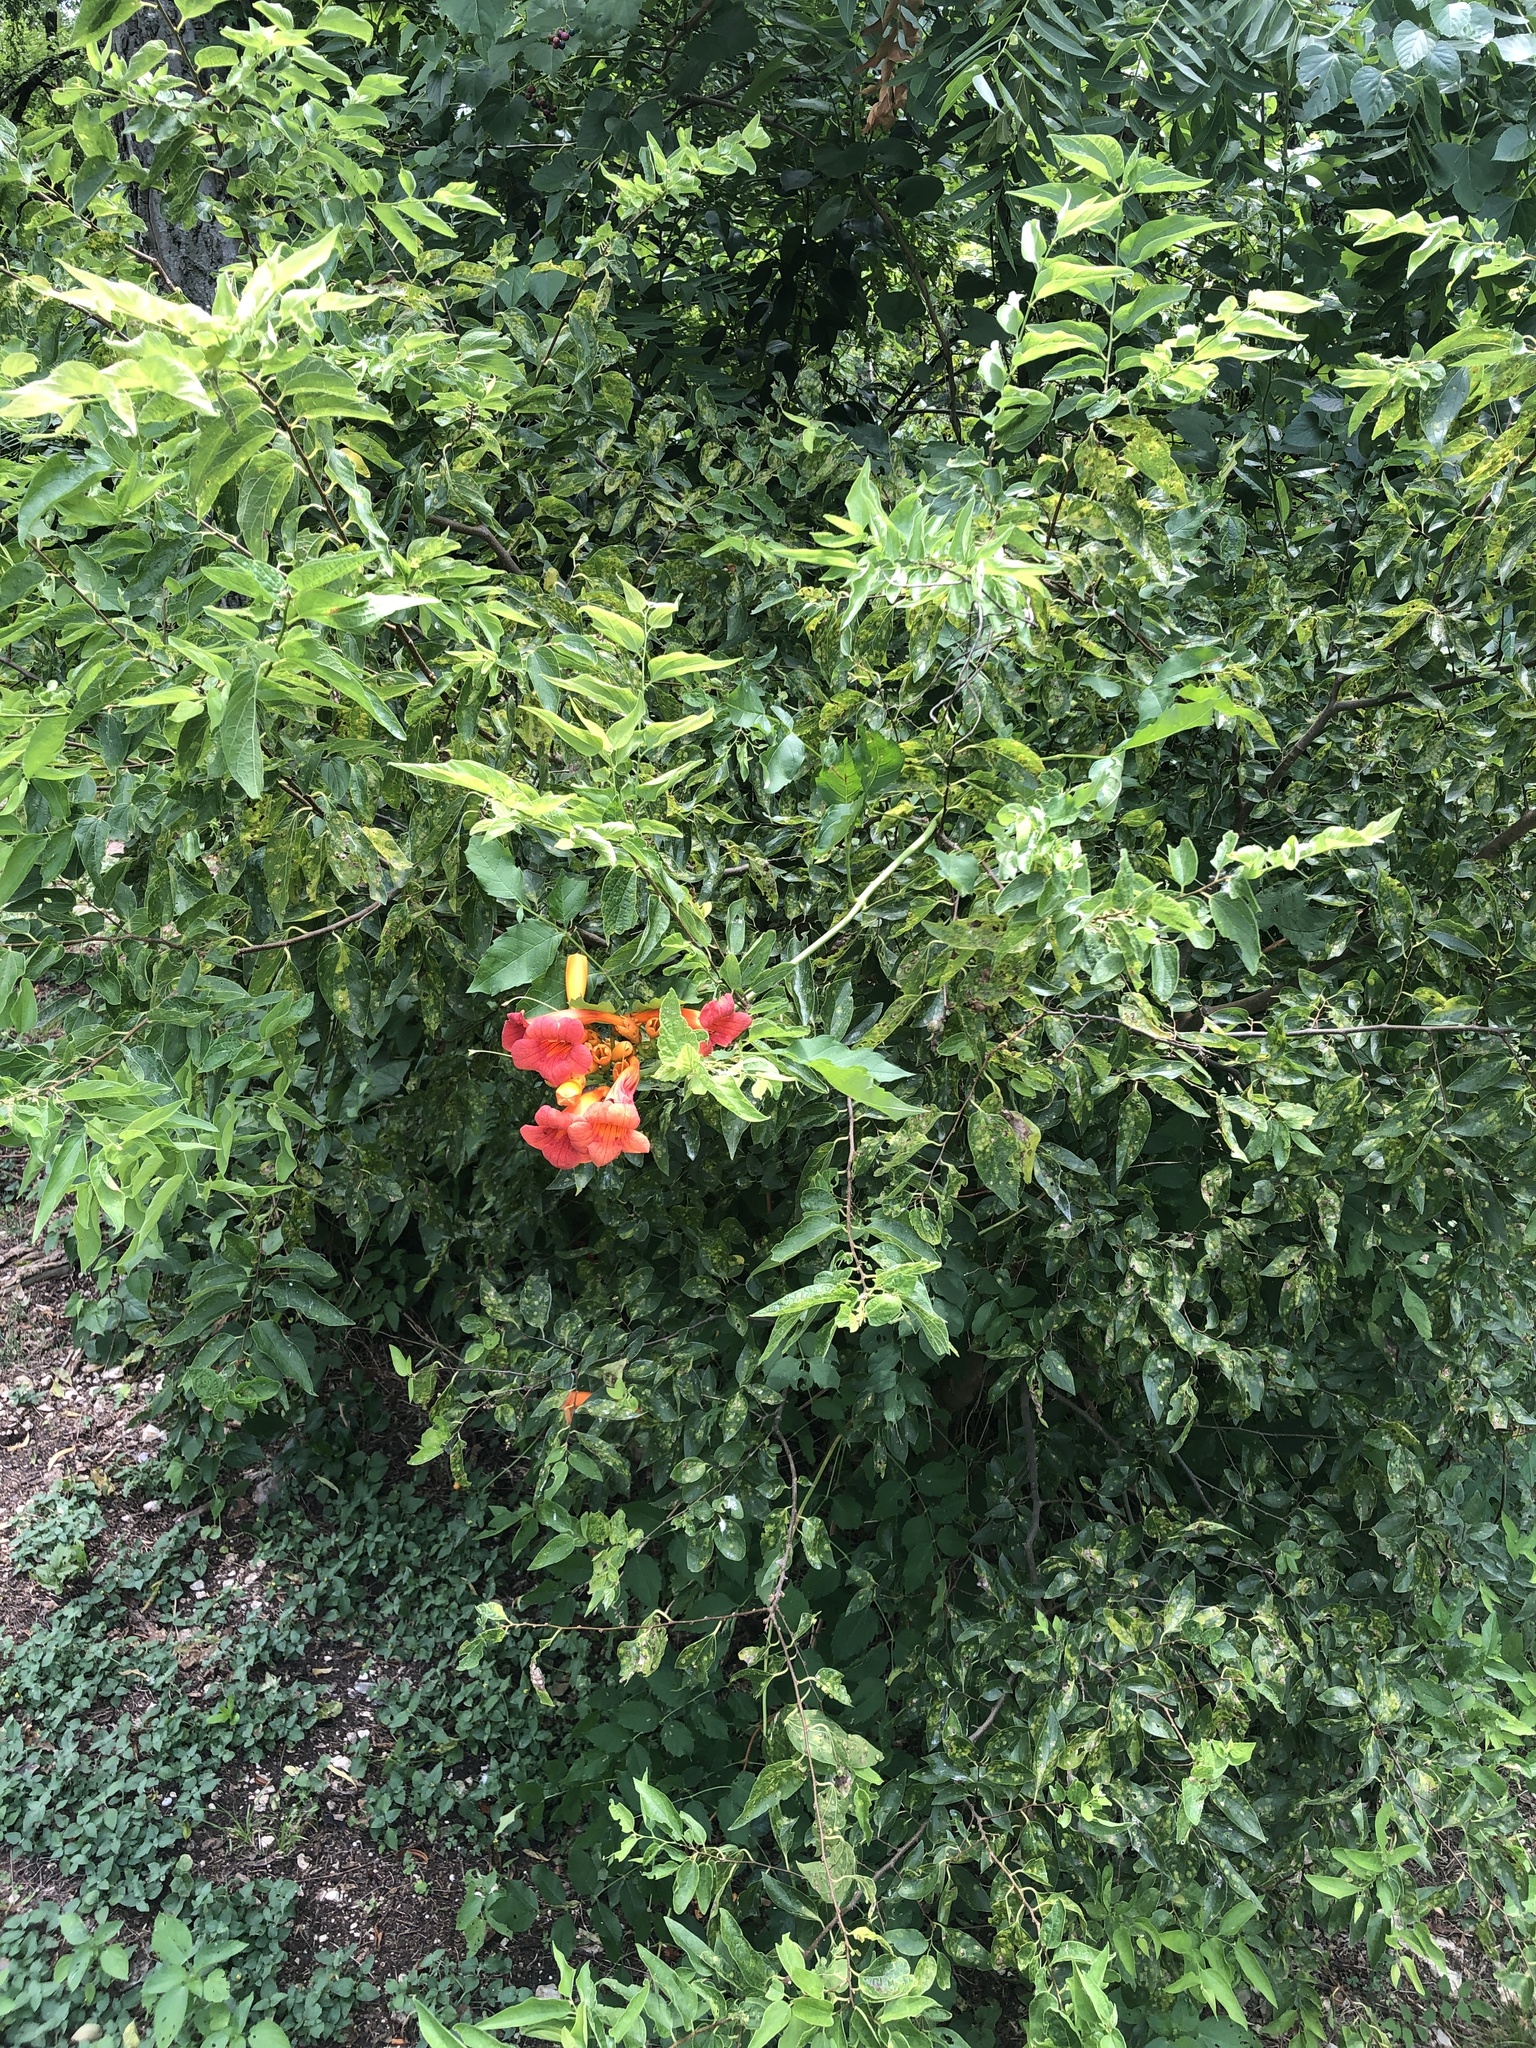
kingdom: Plantae
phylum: Tracheophyta
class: Magnoliopsida
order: Lamiales
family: Bignoniaceae
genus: Campsis
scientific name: Campsis radicans
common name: Trumpet-creeper
